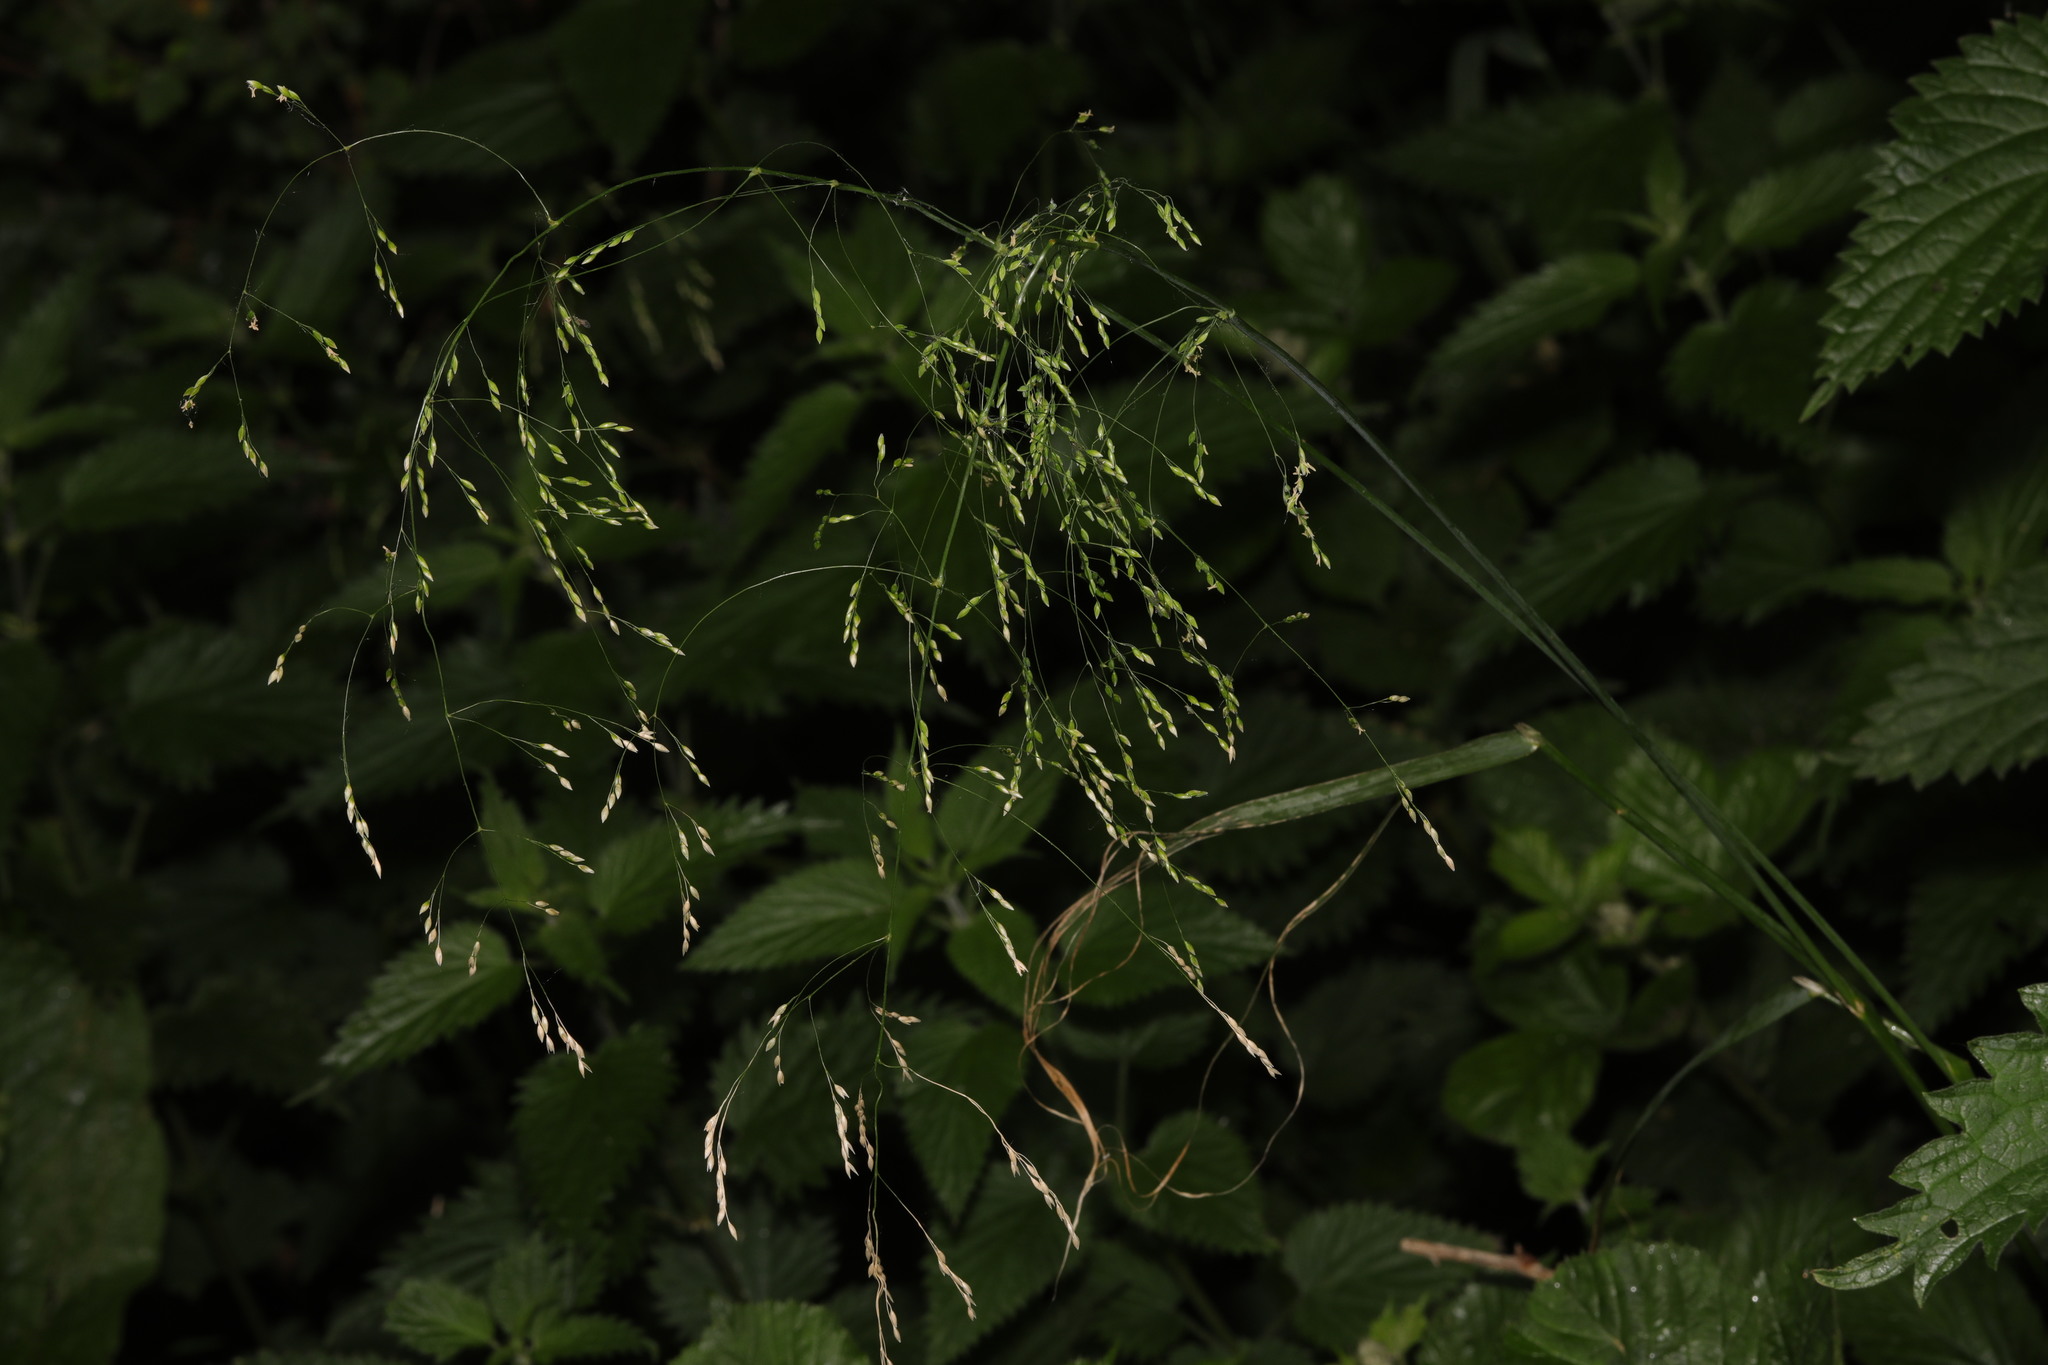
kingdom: Plantae
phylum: Tracheophyta
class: Liliopsida
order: Poales
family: Poaceae
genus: Milium
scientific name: Milium effusum
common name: Wood millet
